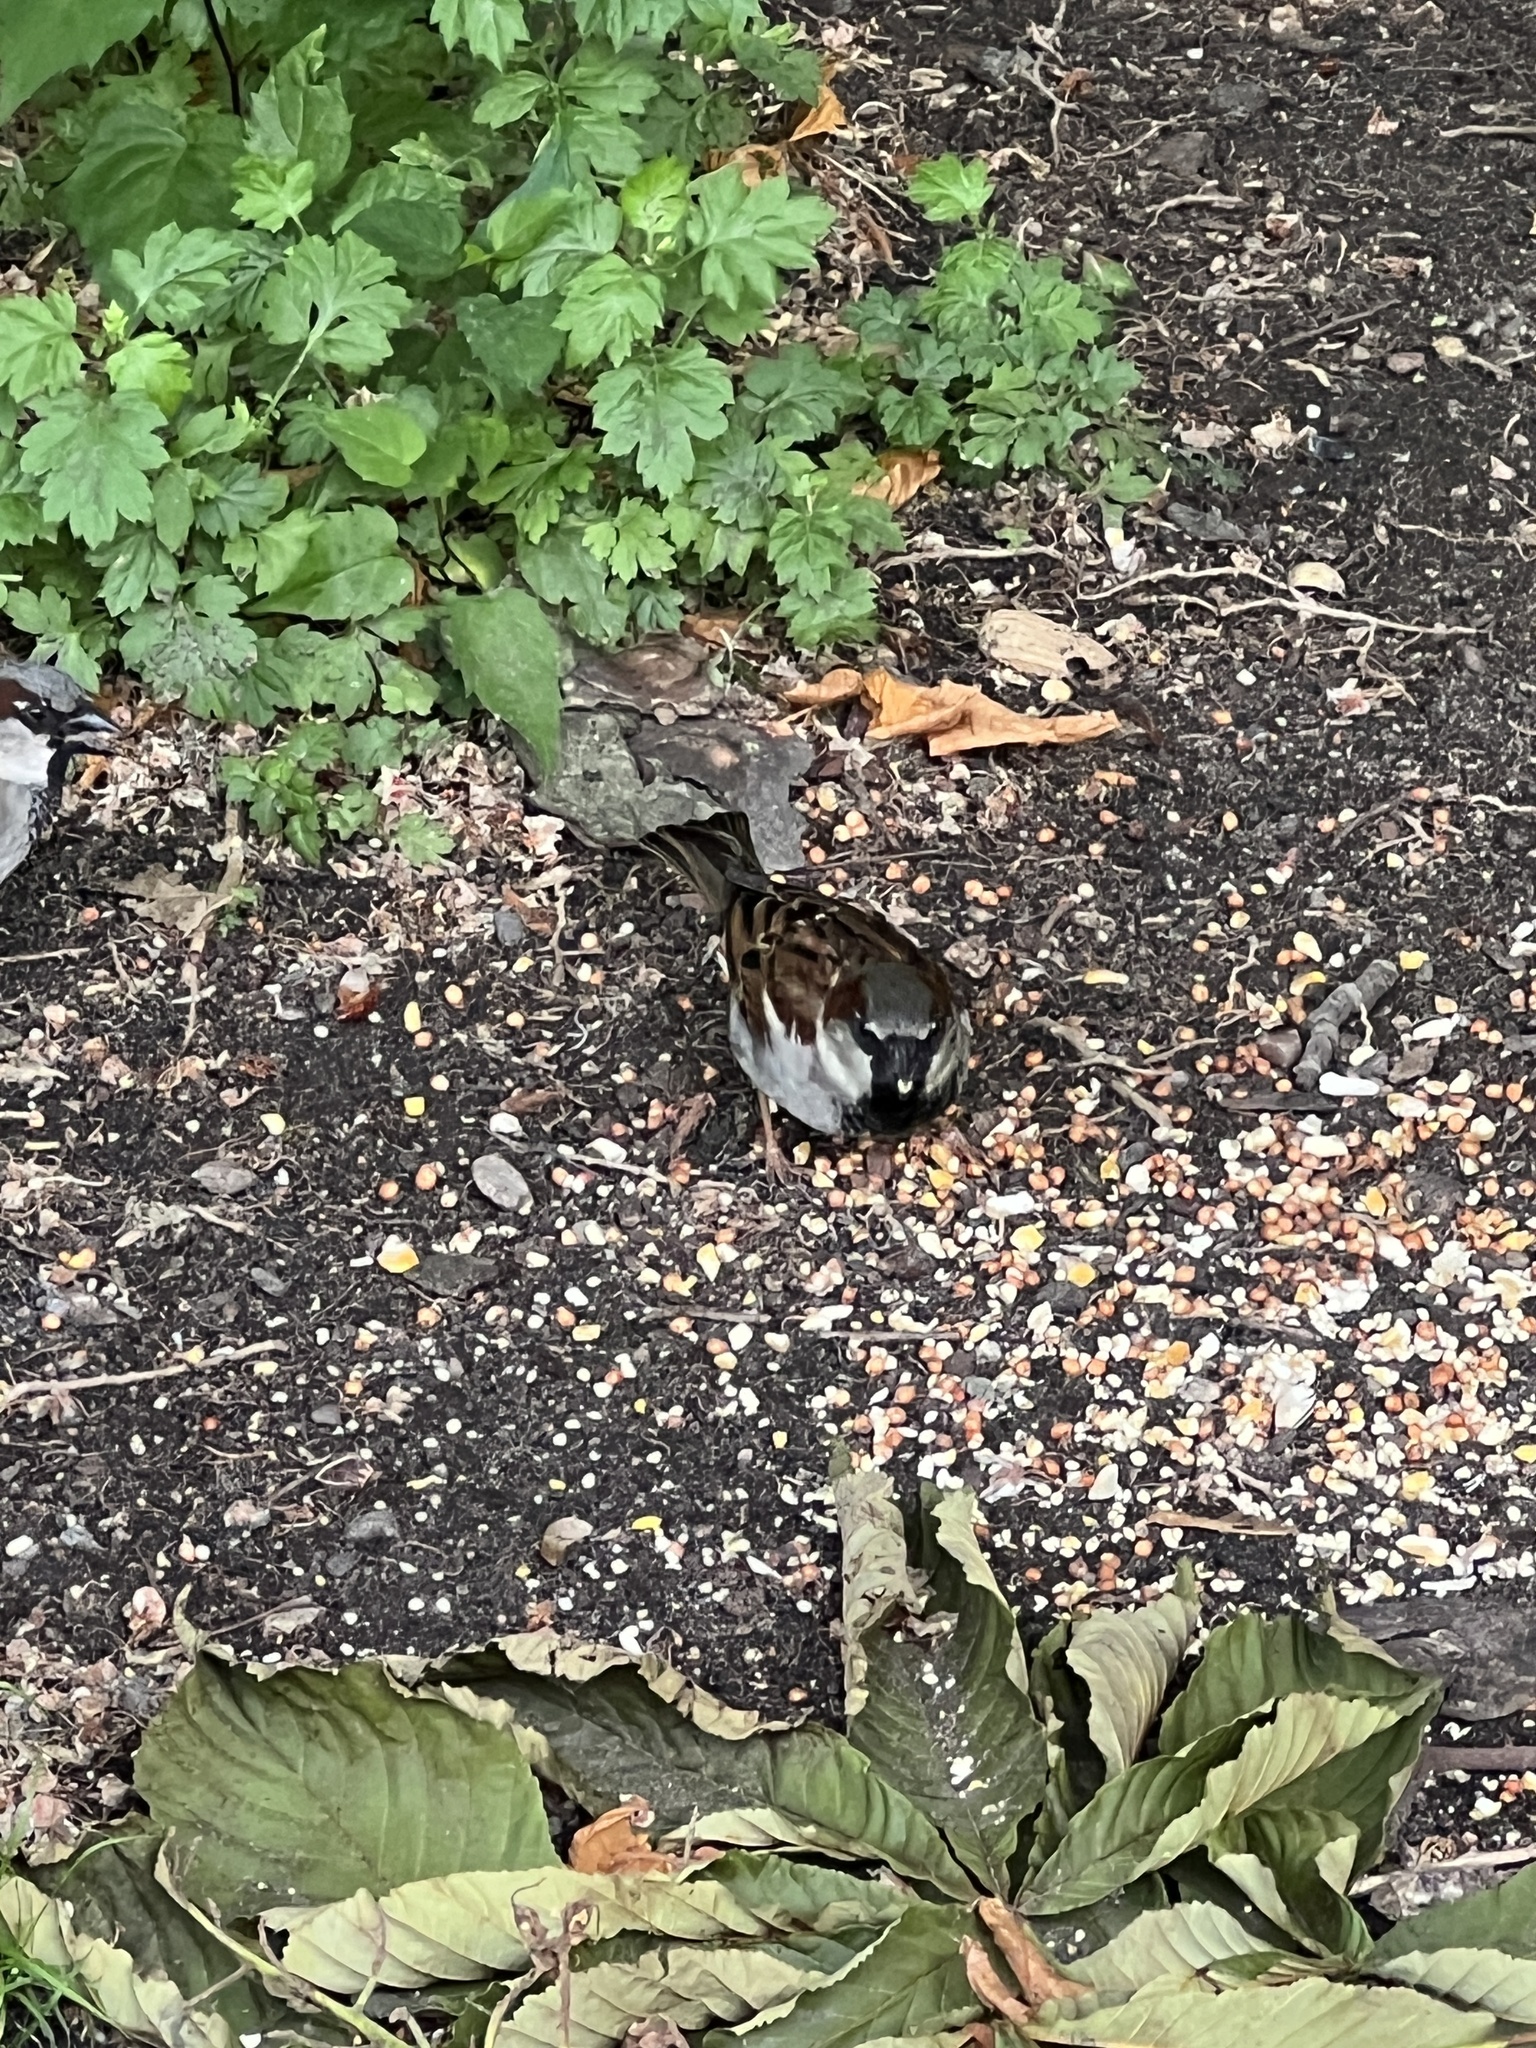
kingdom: Animalia
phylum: Chordata
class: Aves
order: Passeriformes
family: Passeridae
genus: Passer
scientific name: Passer domesticus
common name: House sparrow
